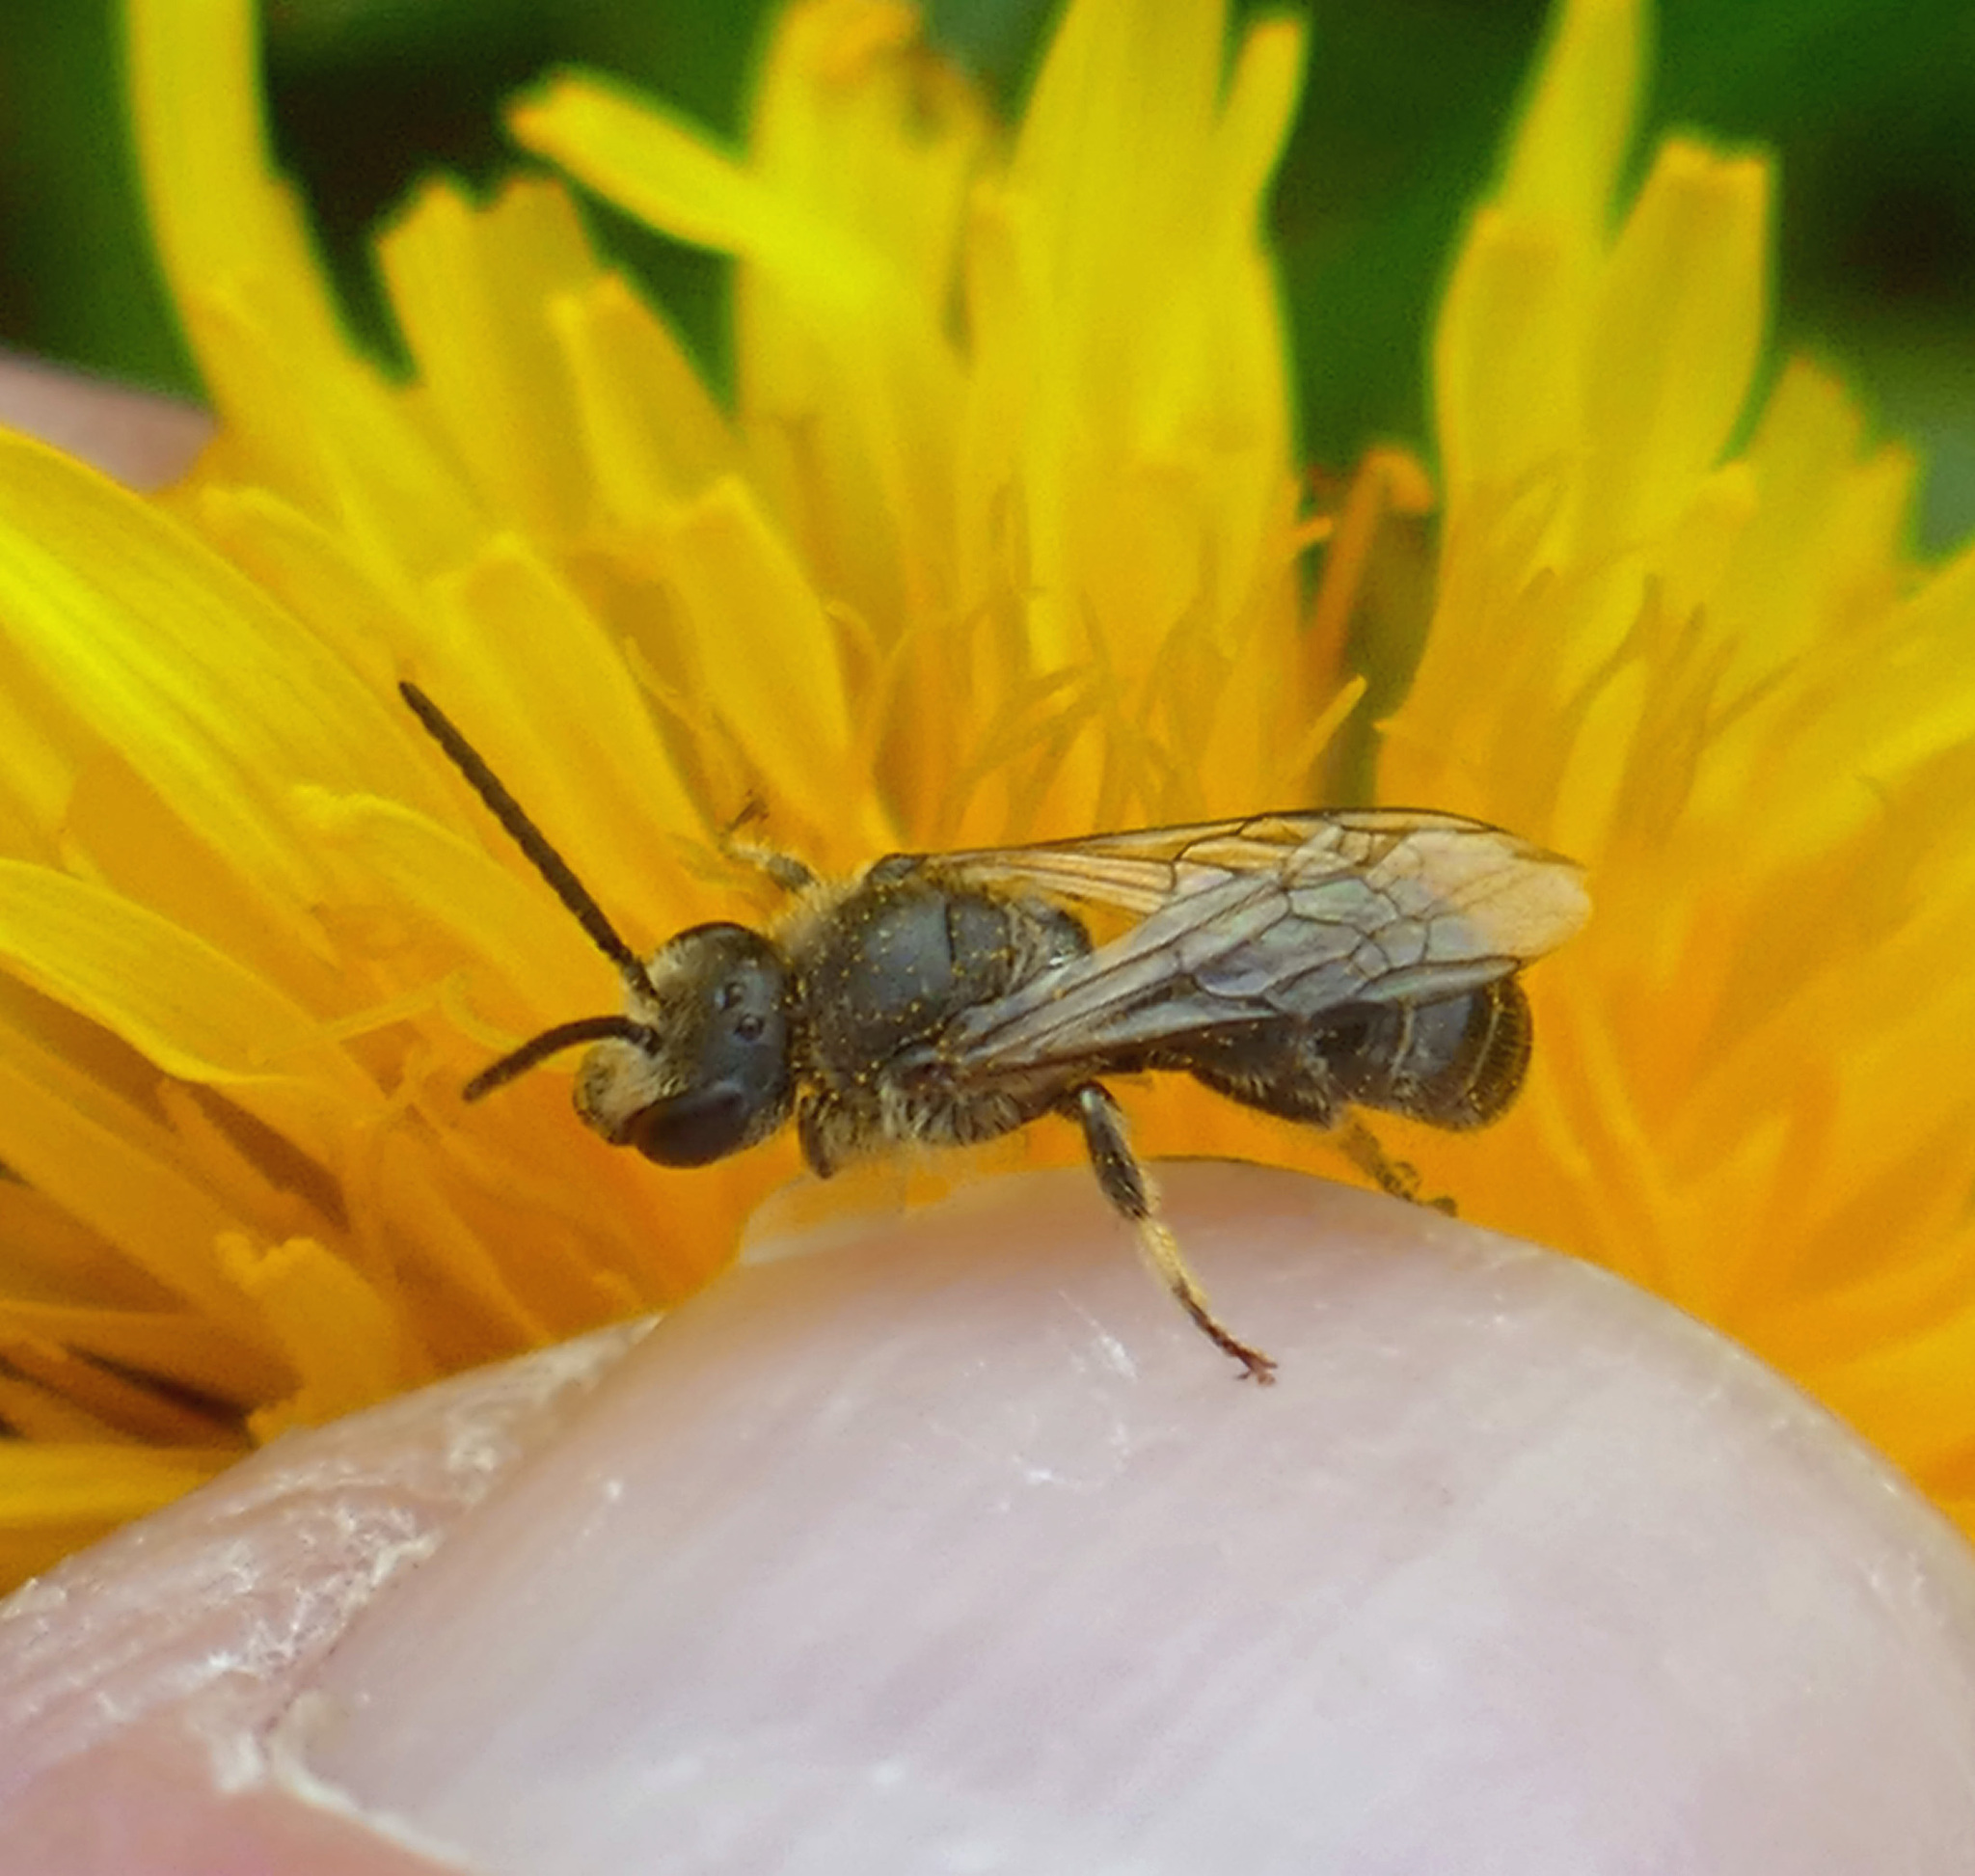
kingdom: Animalia
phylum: Arthropoda
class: Insecta
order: Hymenoptera
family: Halictidae
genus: Lasioglossum
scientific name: Lasioglossum leucozonium
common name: White-zoned furrow bee
